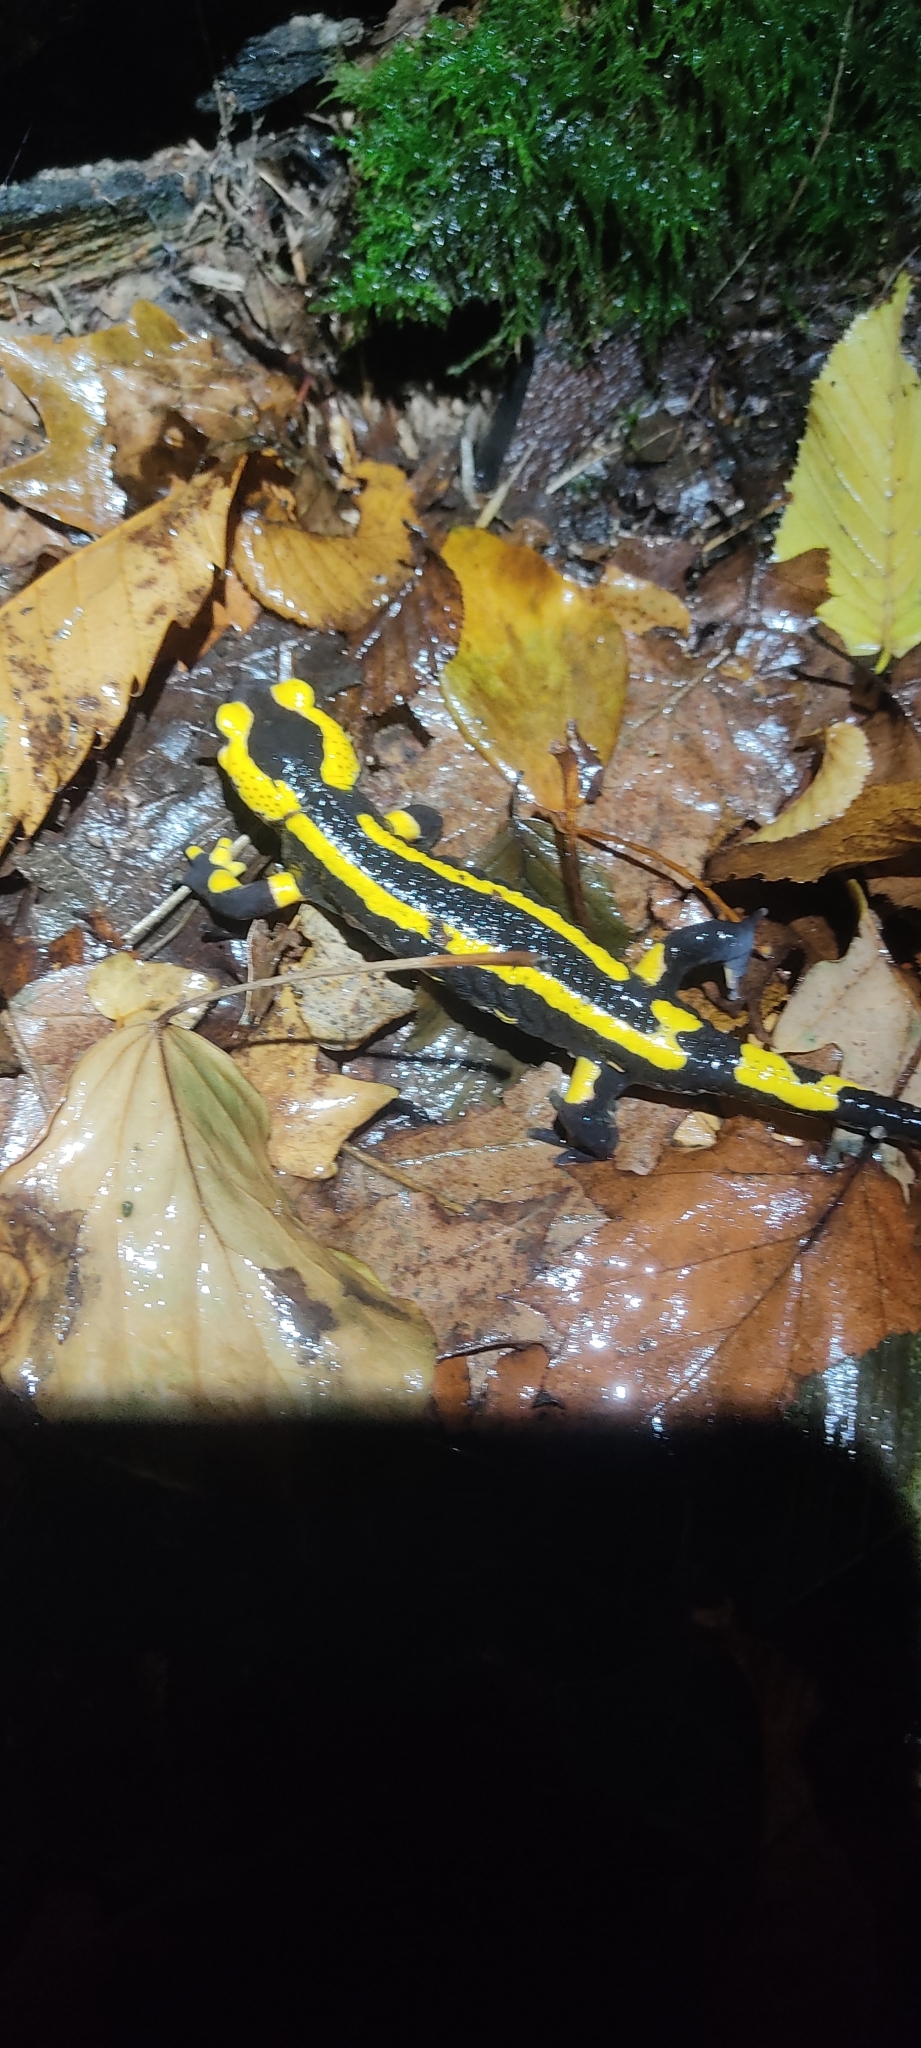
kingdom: Animalia
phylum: Chordata
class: Amphibia
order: Caudata
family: Salamandridae
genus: Salamandra
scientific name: Salamandra salamandra
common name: Fire salamander
